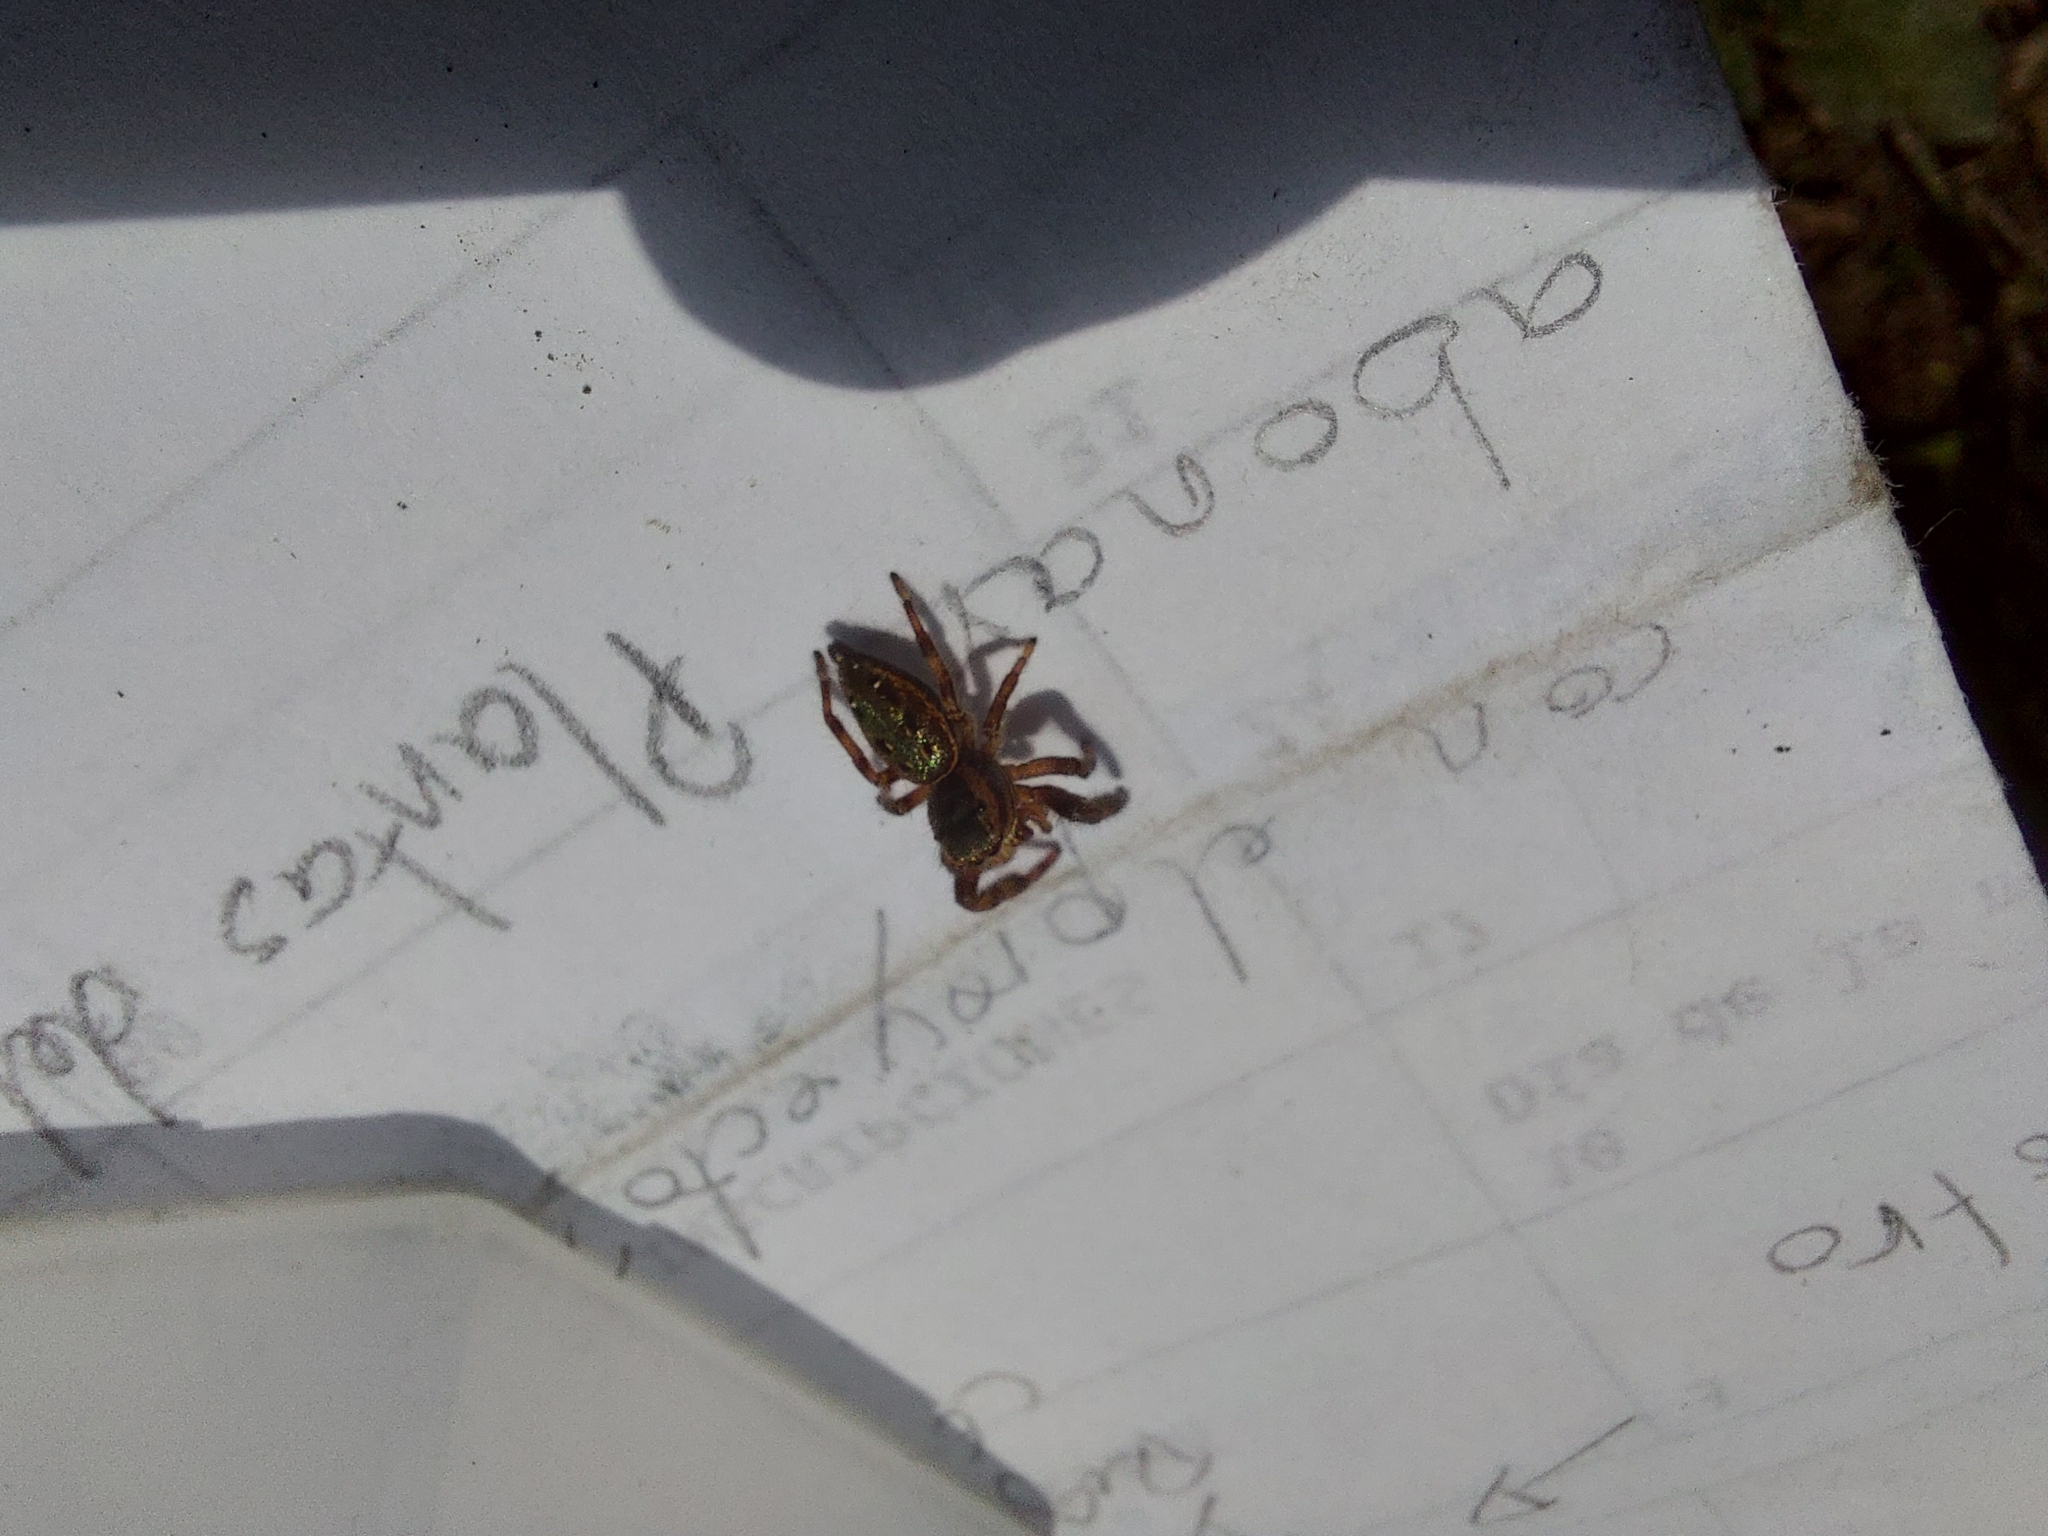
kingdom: Animalia
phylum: Arthropoda
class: Arachnida
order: Araneae
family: Salticidae
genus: Paraphidippus
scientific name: Paraphidippus aurantius
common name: Jumping spiders
